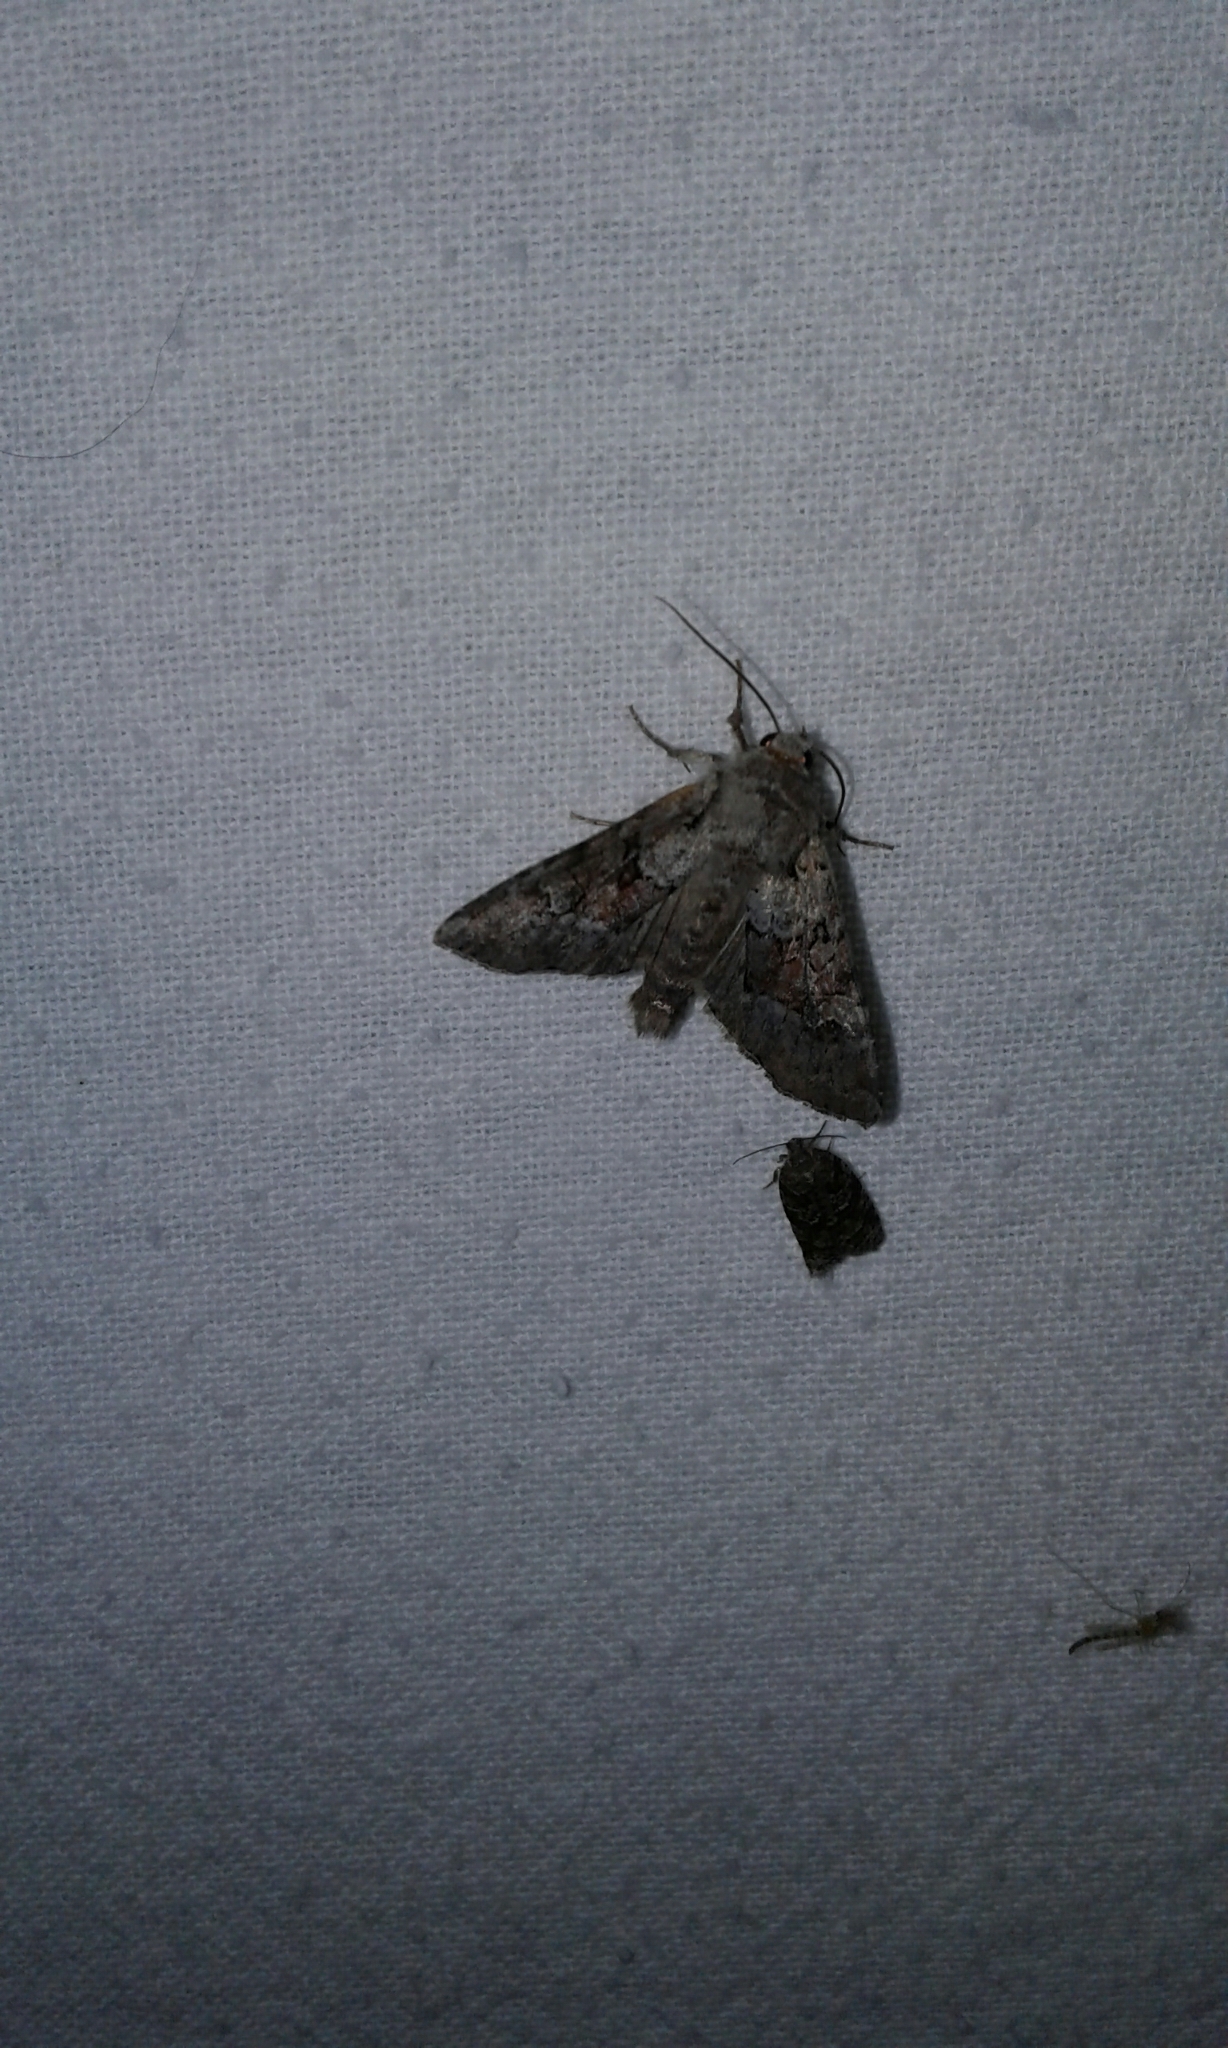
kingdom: Animalia
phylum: Arthropoda
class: Insecta
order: Lepidoptera
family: Noctuidae
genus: Apamea
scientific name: Apamea sordens
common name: Rustic shoulder-knot
